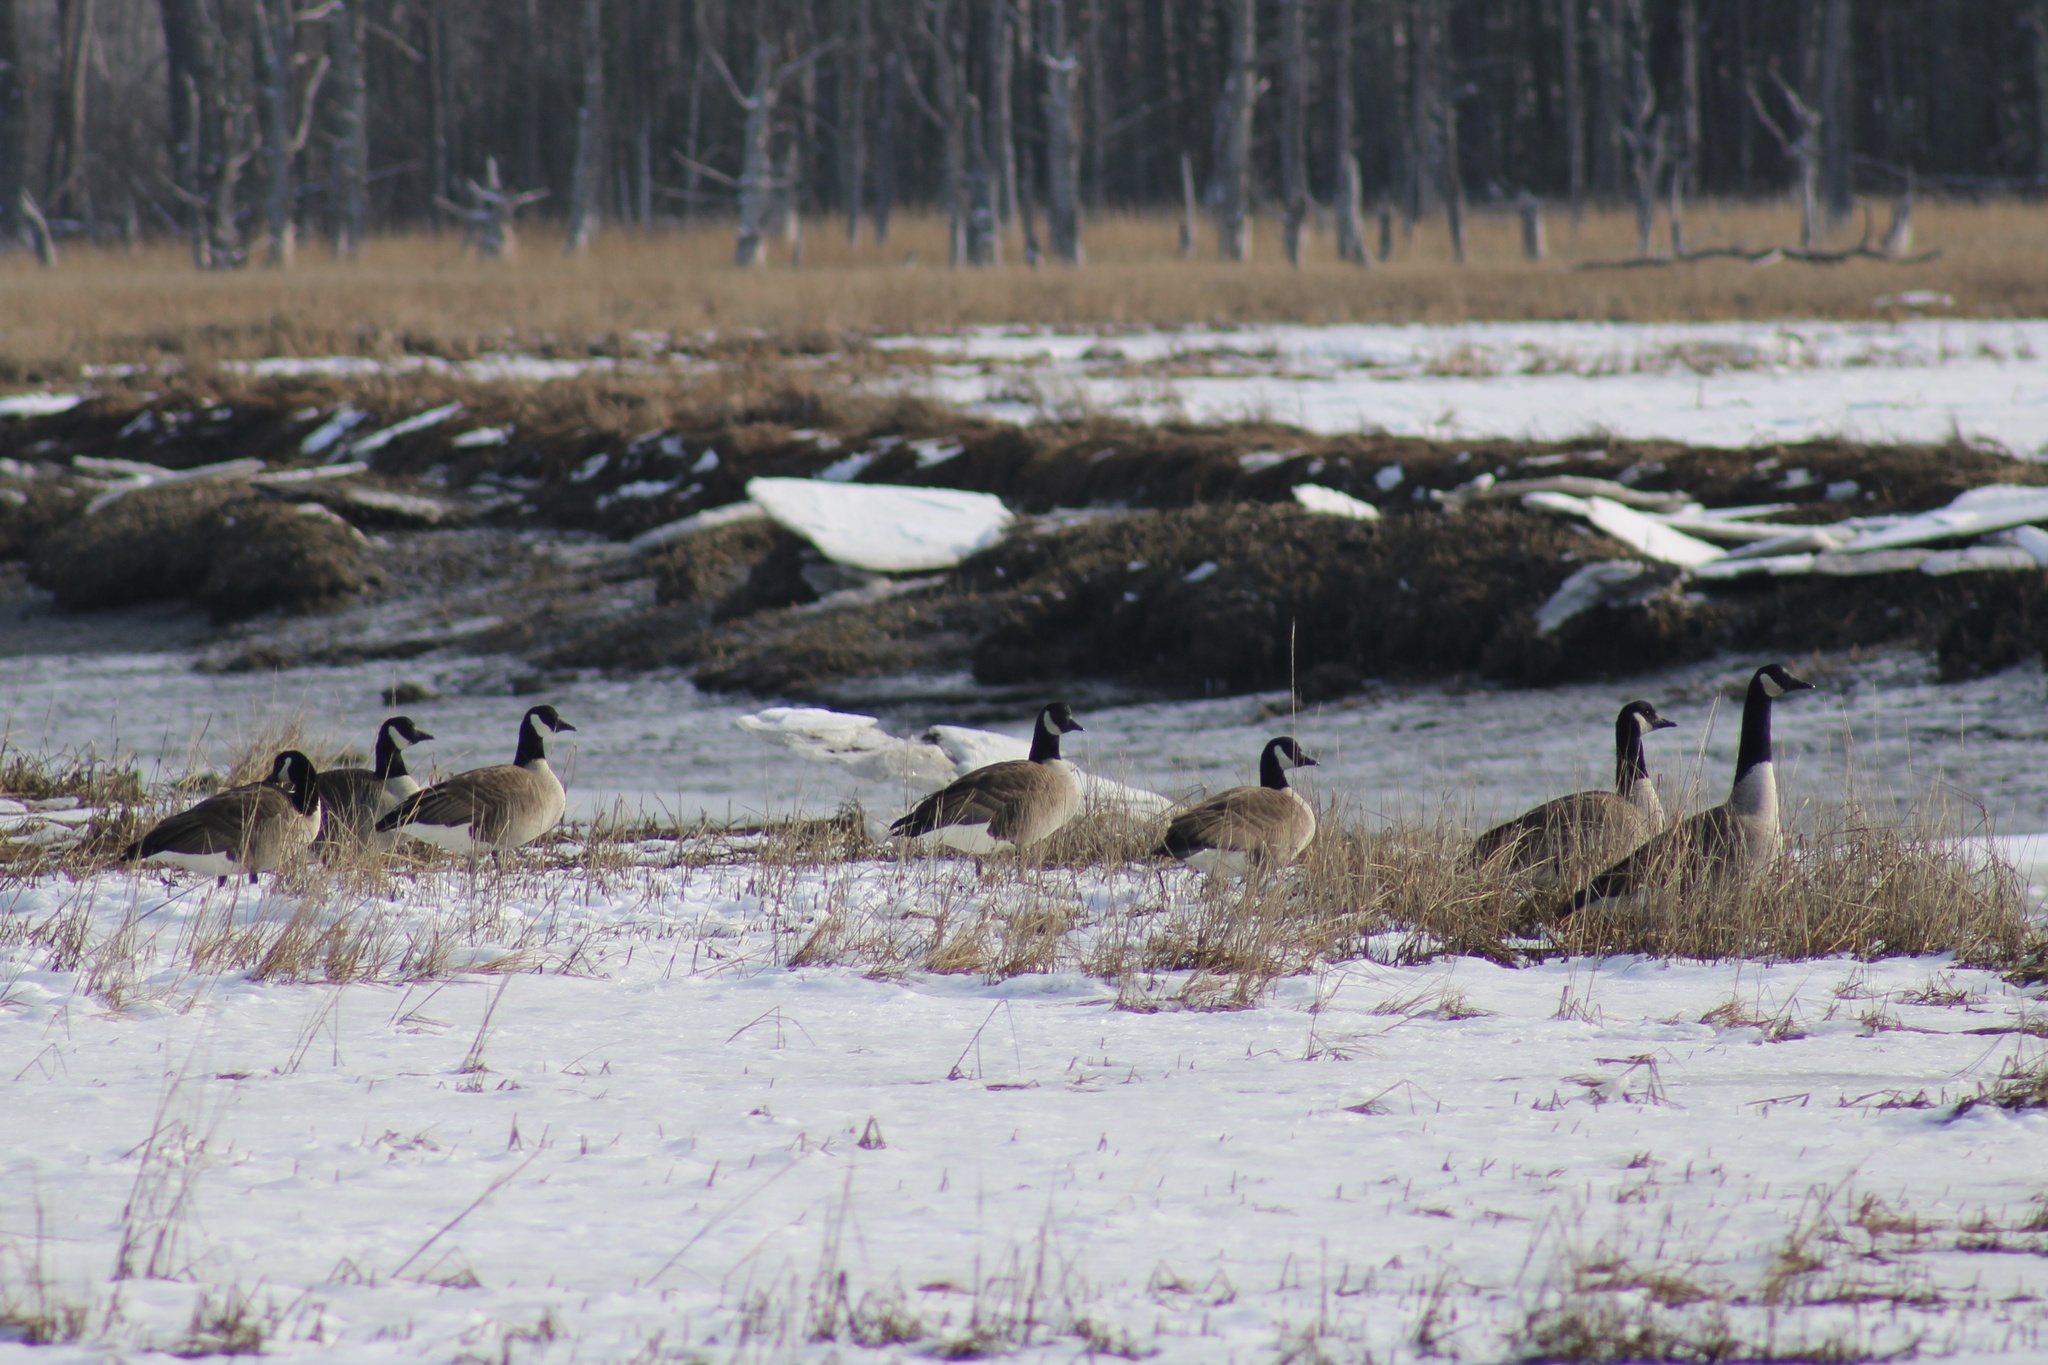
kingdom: Animalia
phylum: Chordata
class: Aves
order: Anseriformes
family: Anatidae
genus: Branta
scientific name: Branta canadensis
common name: Canada goose
